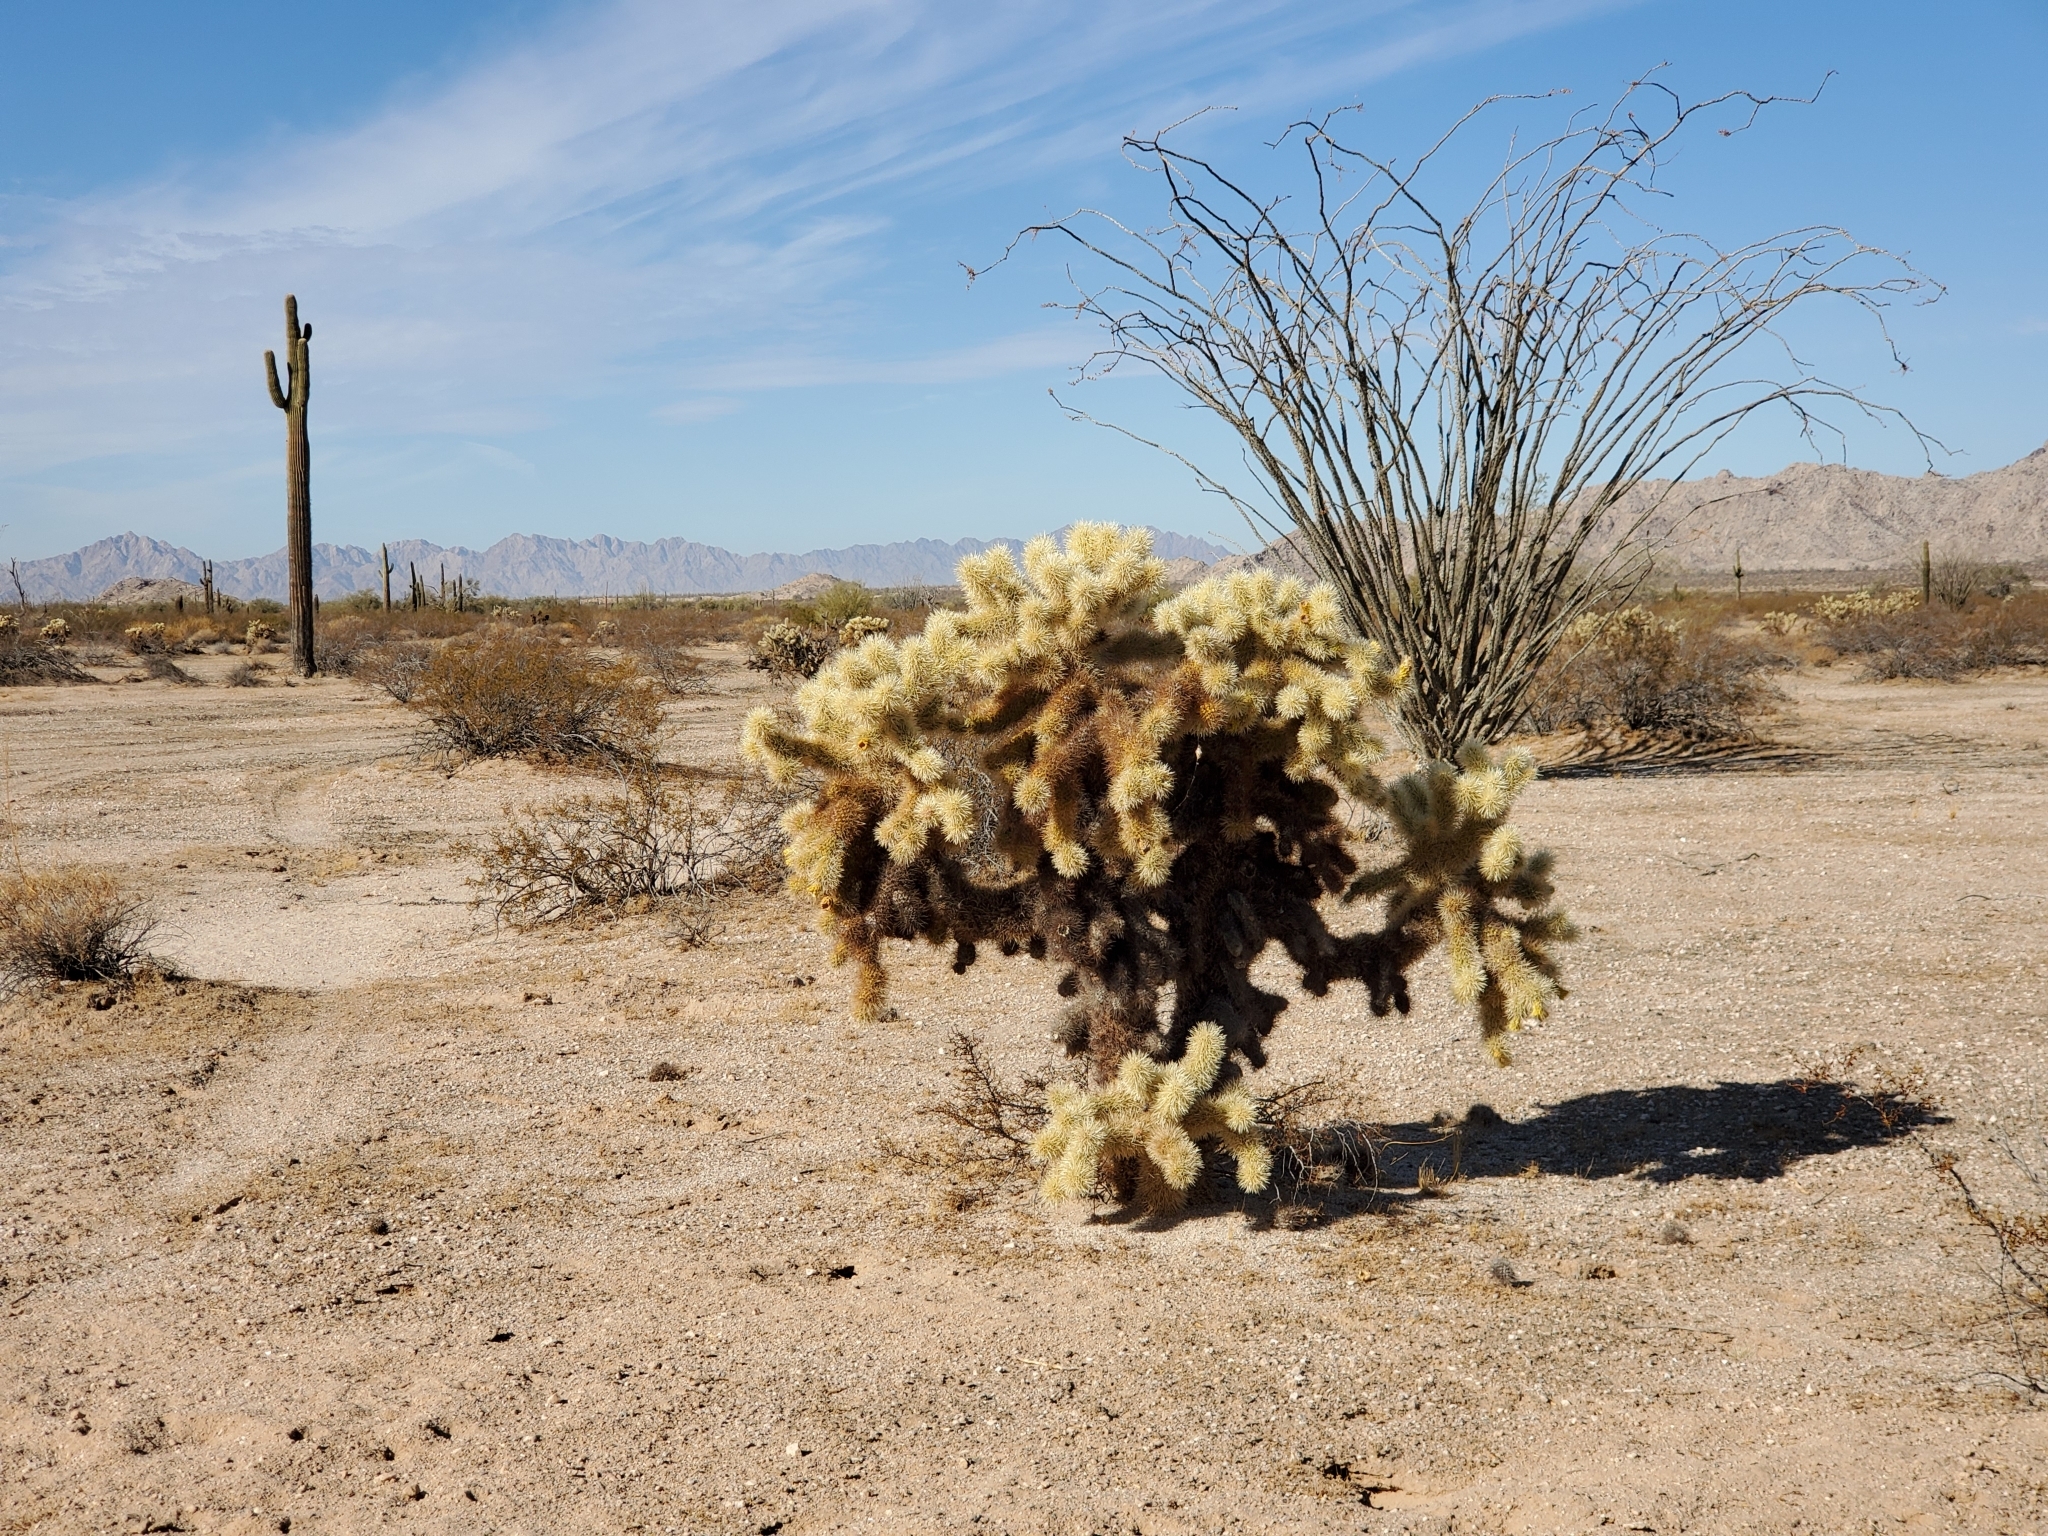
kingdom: Plantae
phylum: Tracheophyta
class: Magnoliopsida
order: Caryophyllales
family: Cactaceae
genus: Cylindropuntia
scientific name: Cylindropuntia fosbergii
